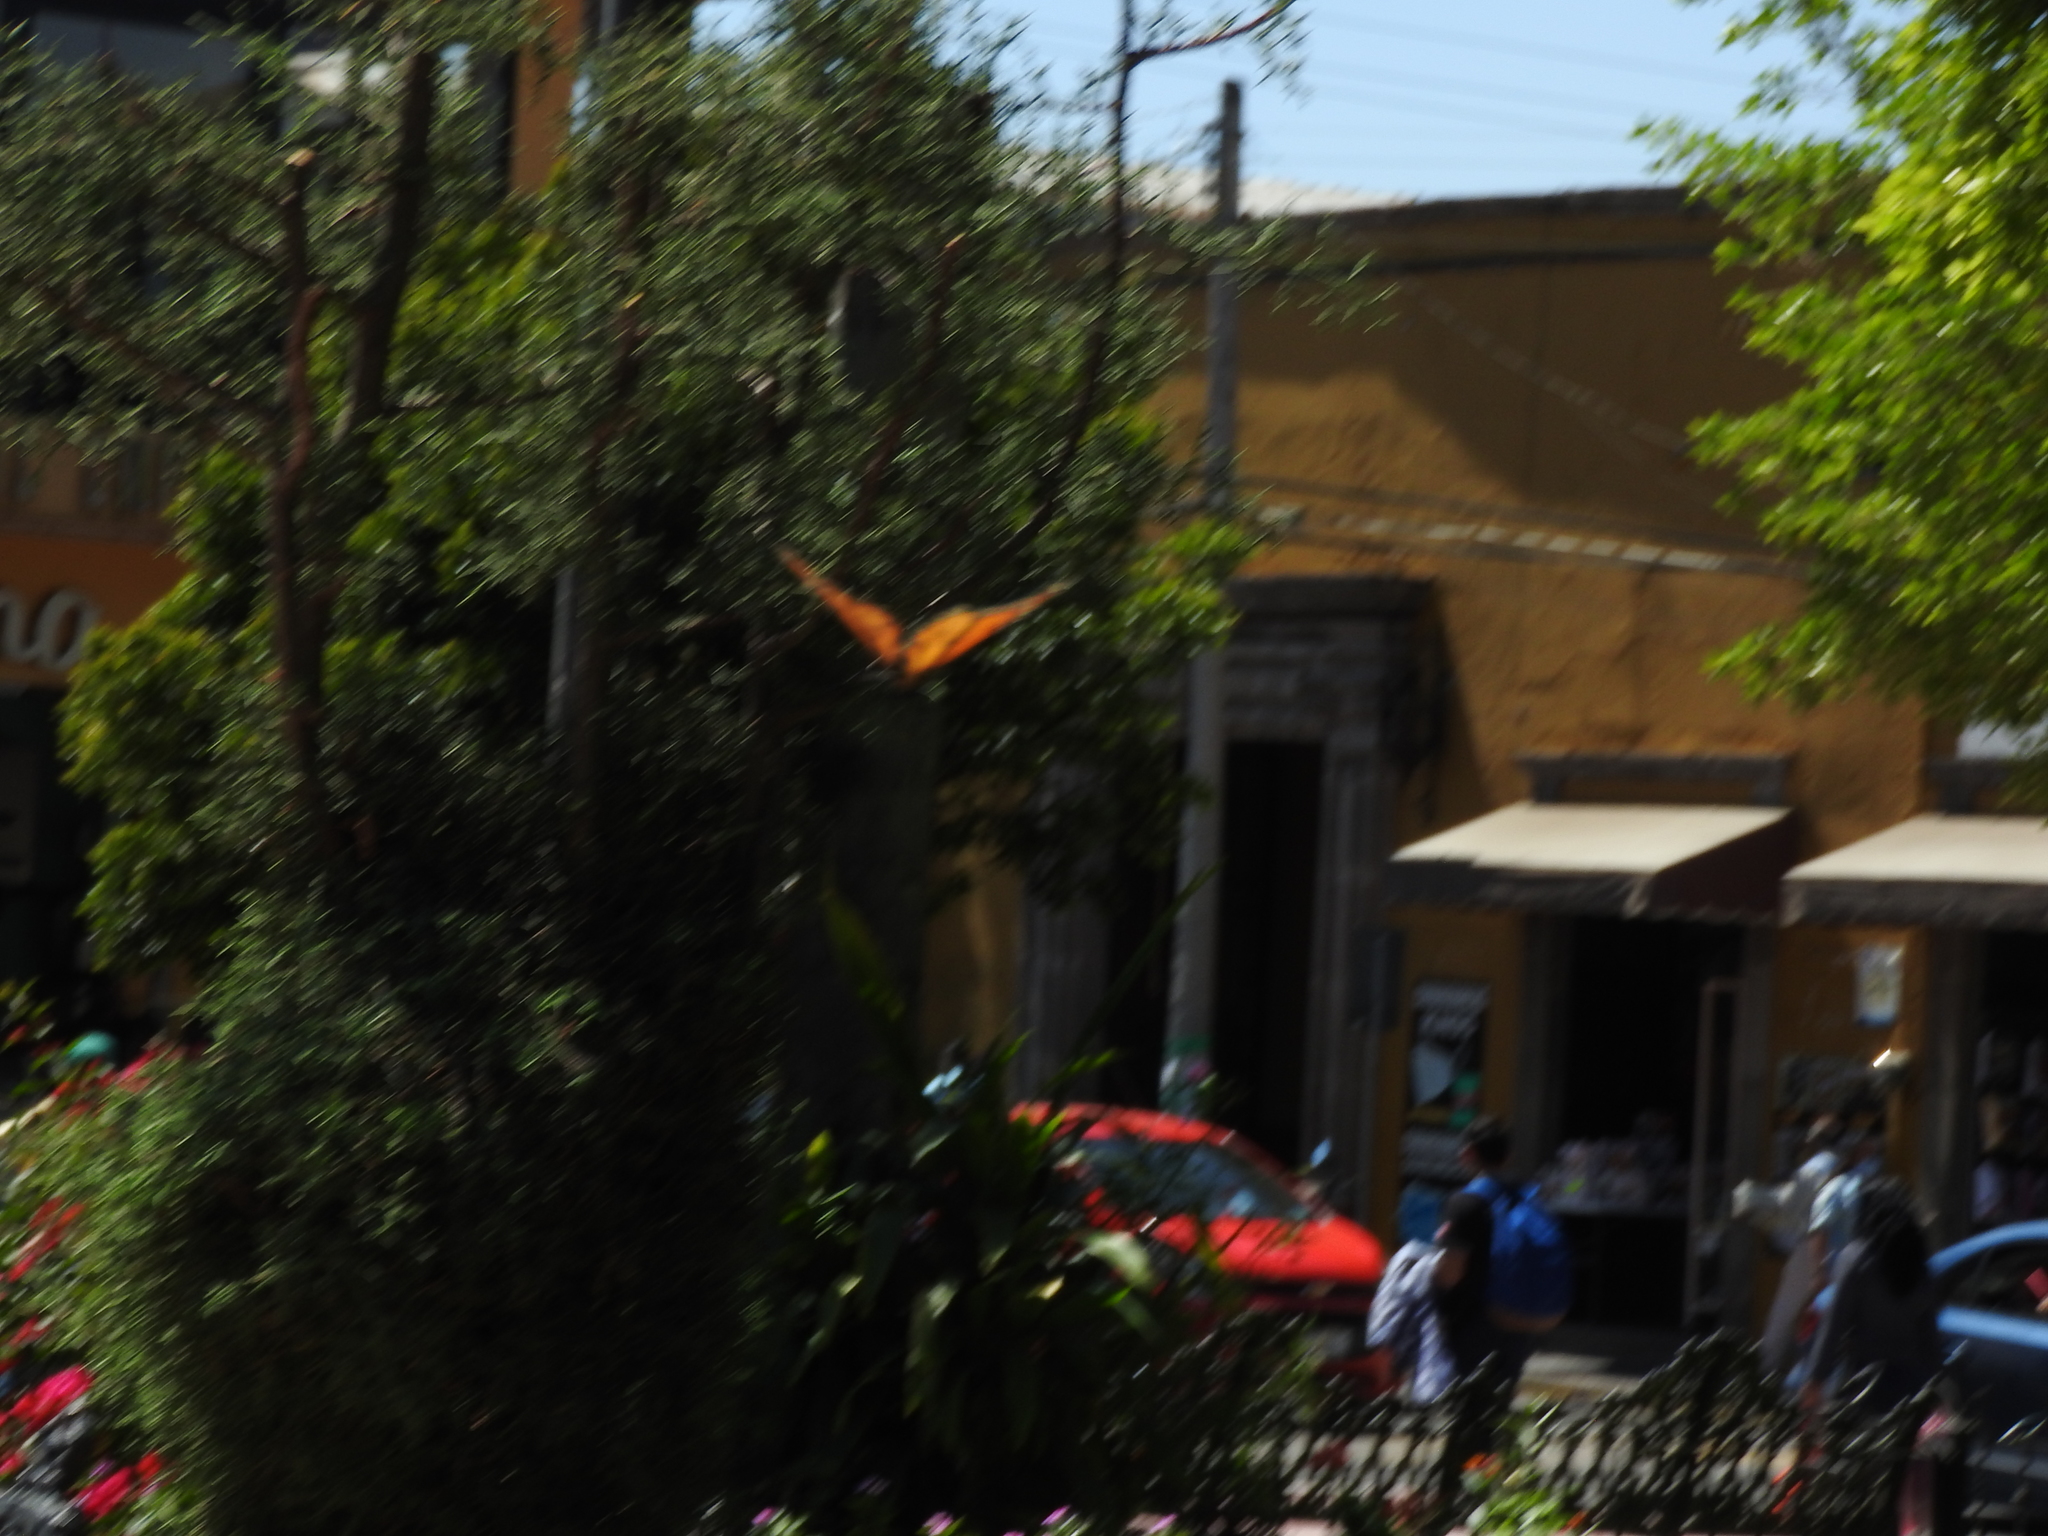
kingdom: Animalia
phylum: Arthropoda
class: Insecta
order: Lepidoptera
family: Nymphalidae
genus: Danaus
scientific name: Danaus plexippus
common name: Monarch
